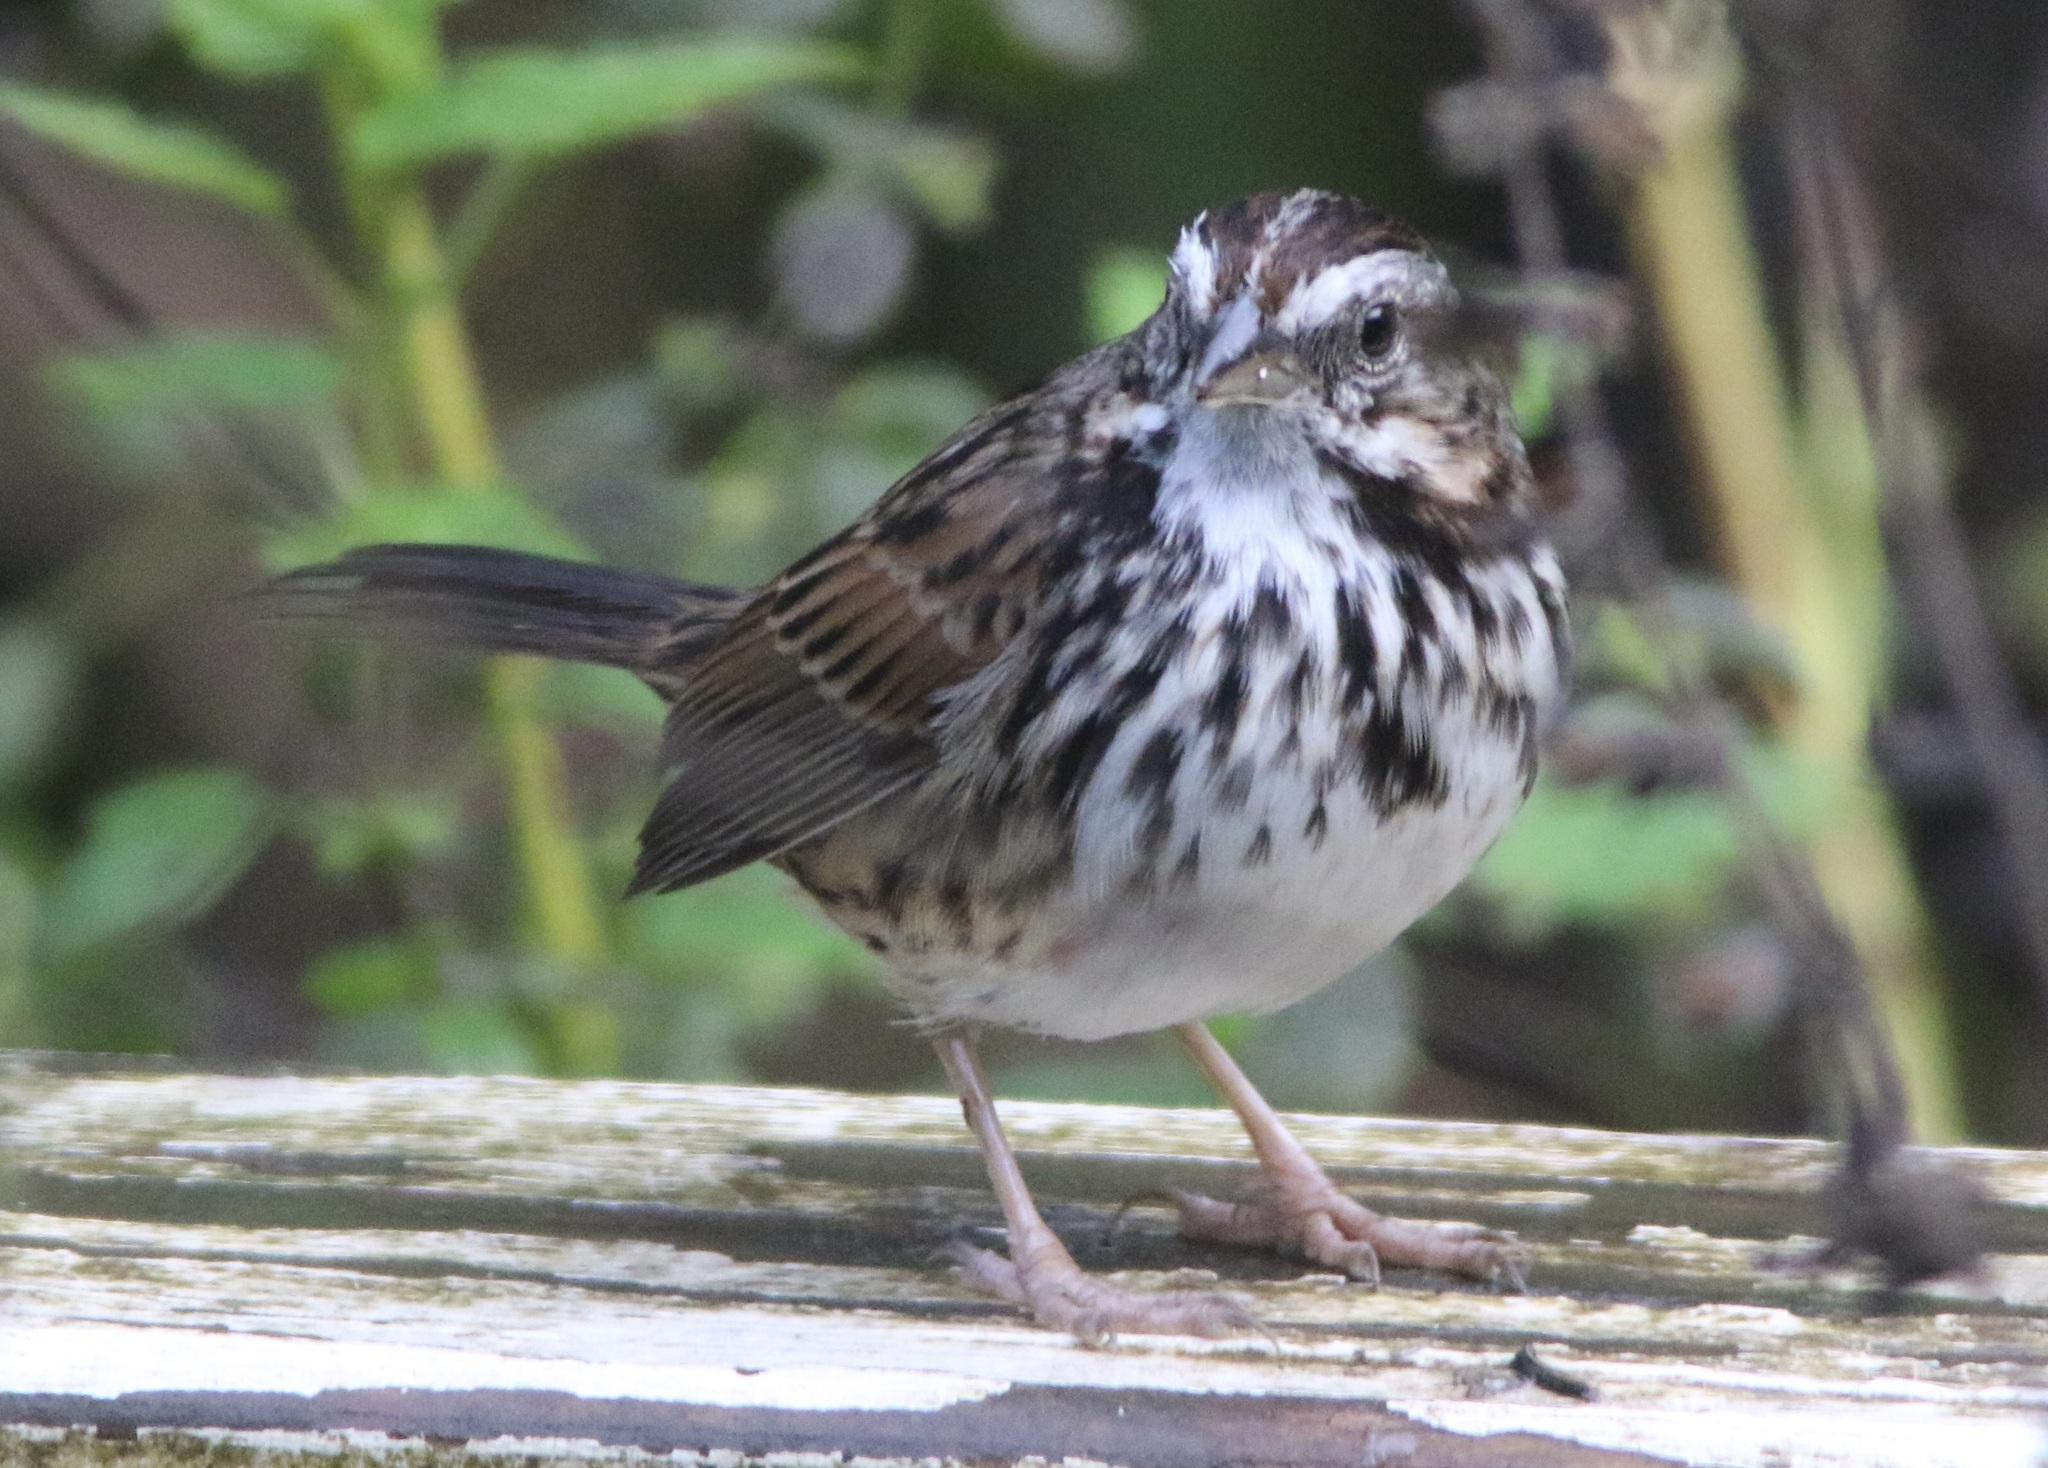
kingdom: Animalia
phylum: Chordata
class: Aves
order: Passeriformes
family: Passerellidae
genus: Melospiza
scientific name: Melospiza melodia
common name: Song sparrow
